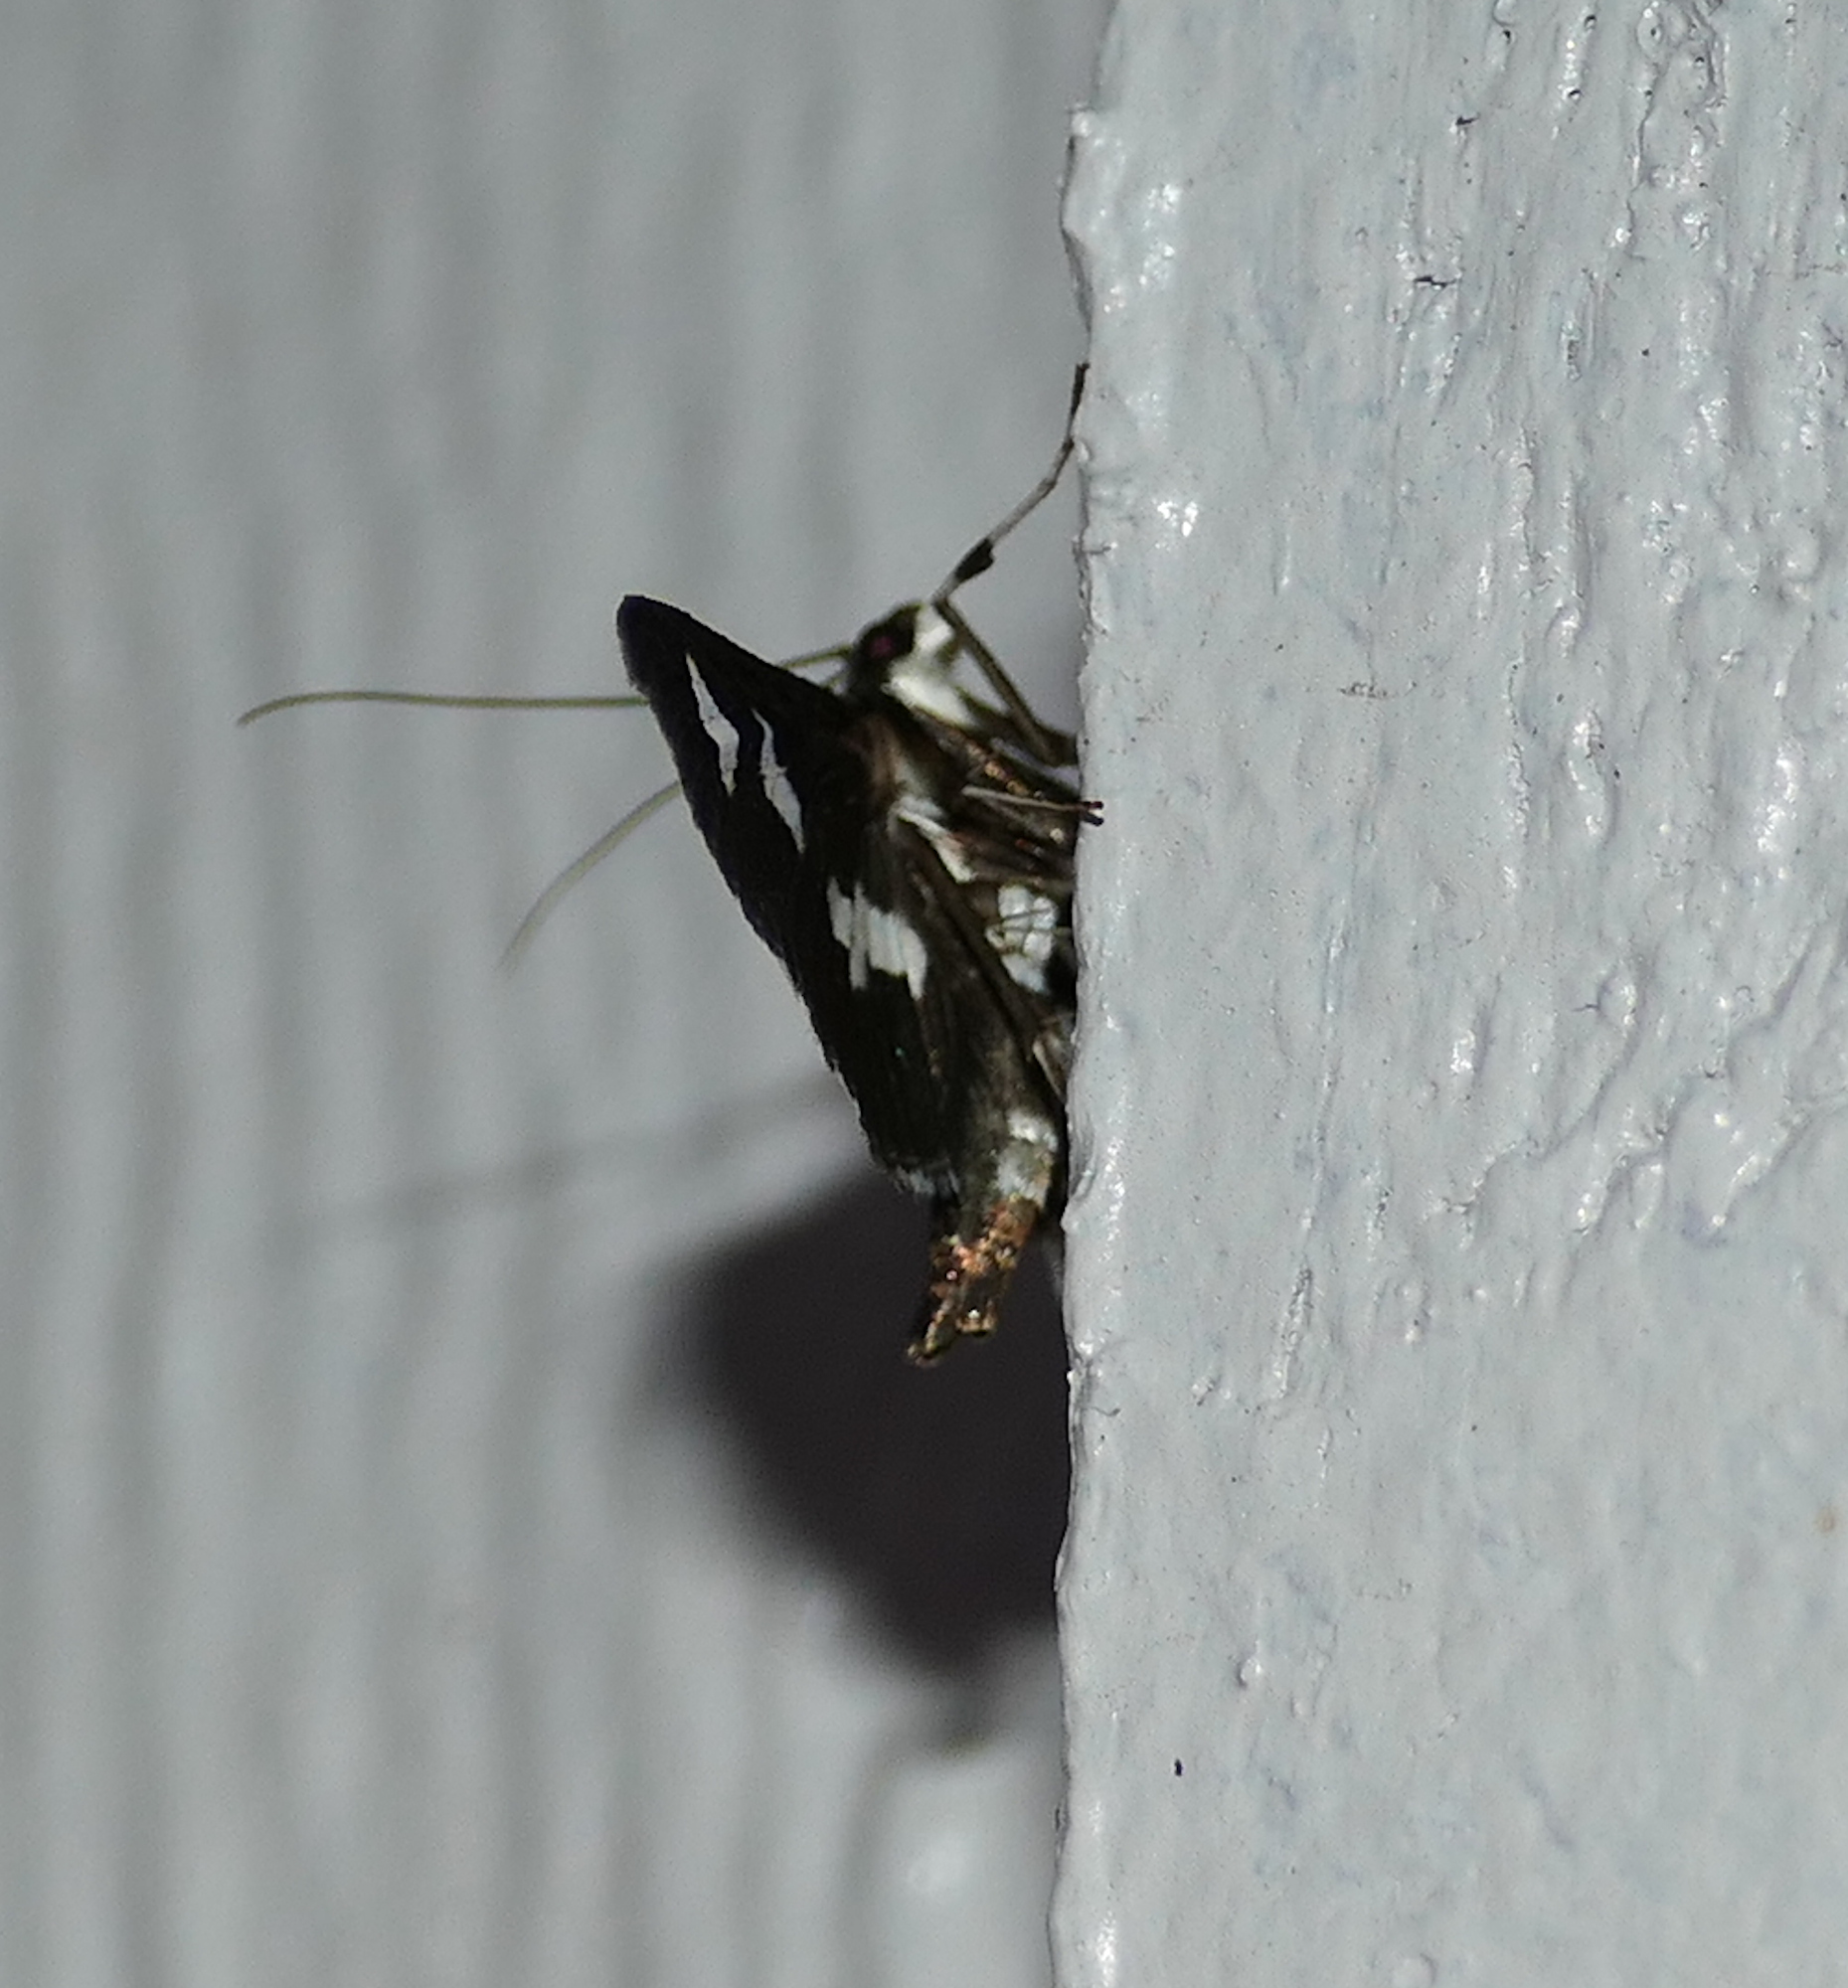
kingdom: Animalia
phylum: Arthropoda
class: Insecta
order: Lepidoptera
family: Crambidae
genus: Desmia
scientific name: Desmia funeralis
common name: Grape leaf folder moth
